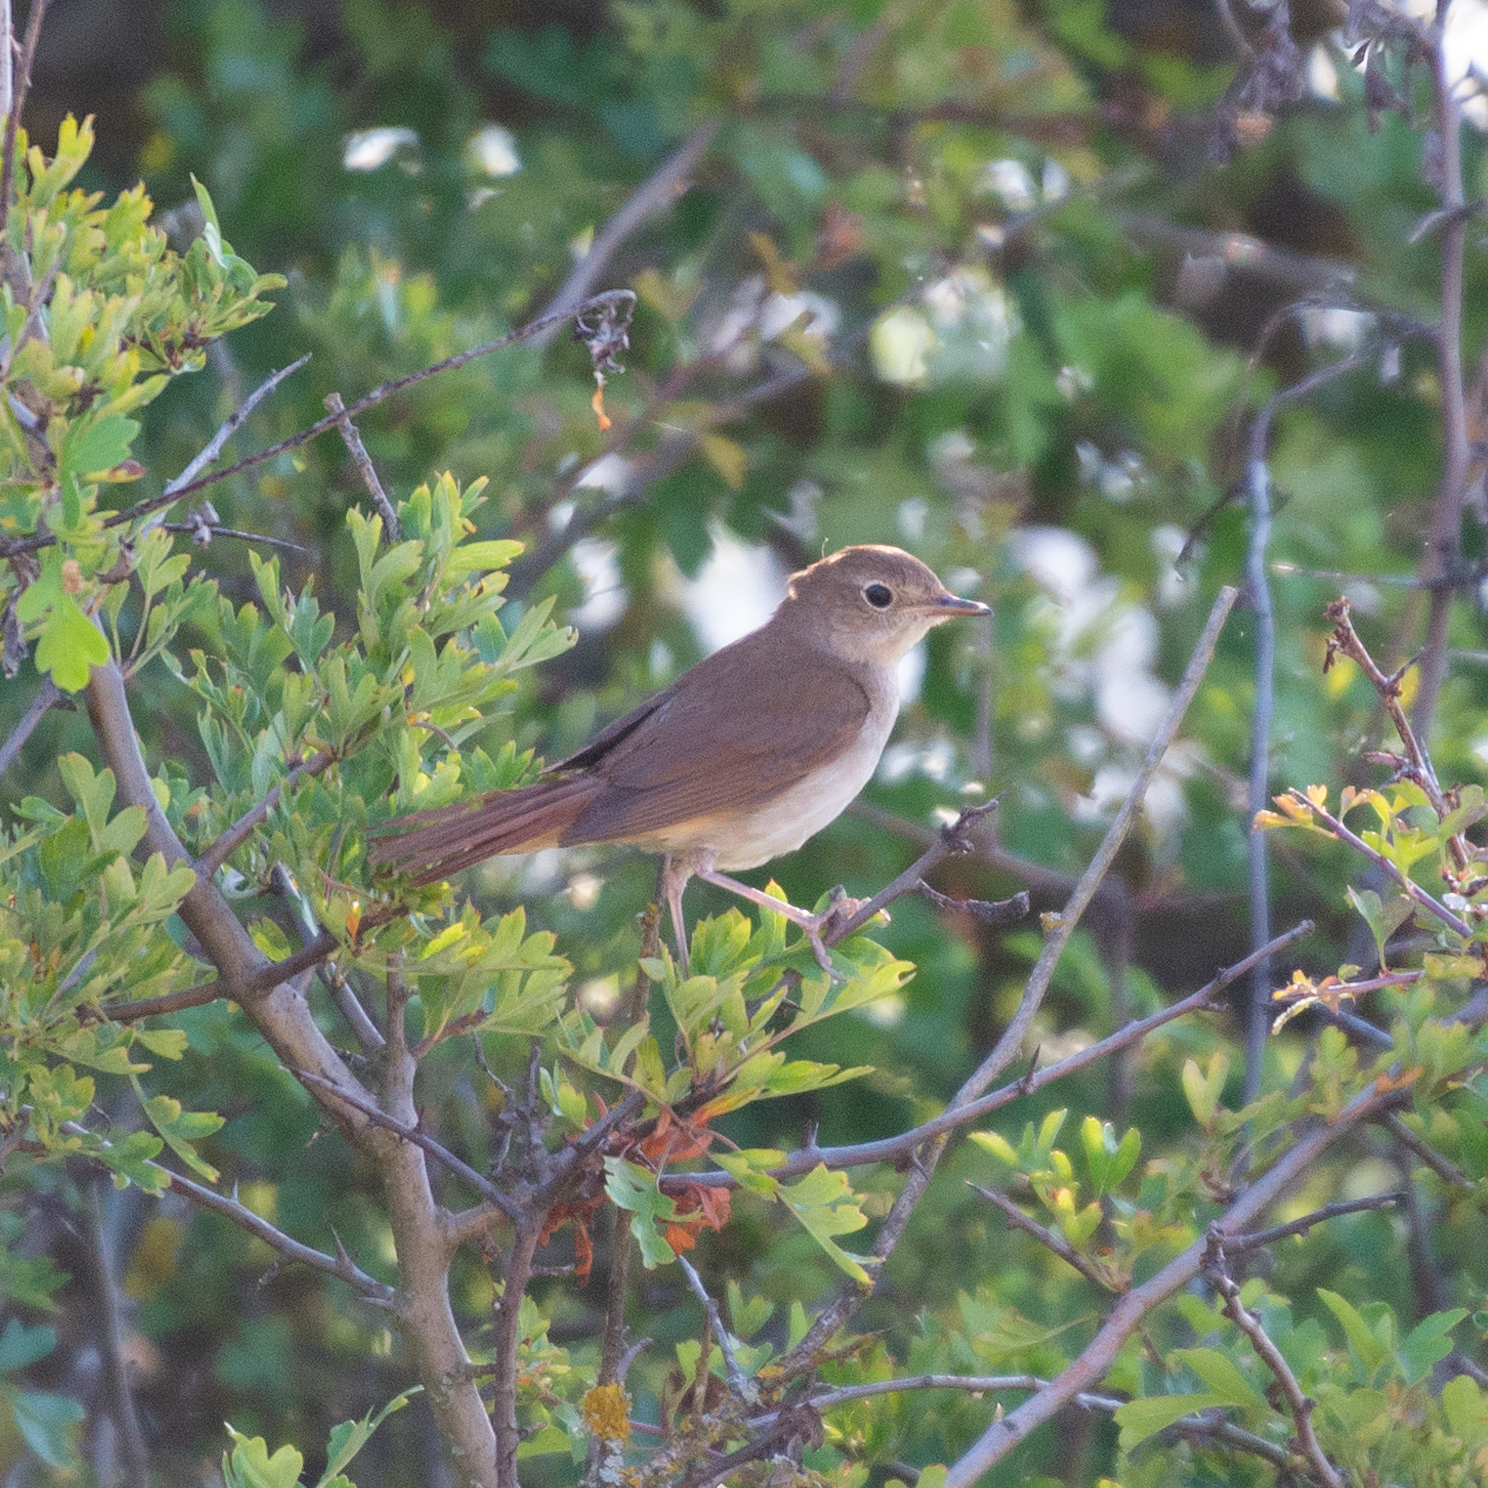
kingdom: Animalia
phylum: Chordata
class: Aves
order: Passeriformes
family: Muscicapidae
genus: Luscinia
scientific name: Luscinia megarhynchos
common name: Common nightingale
